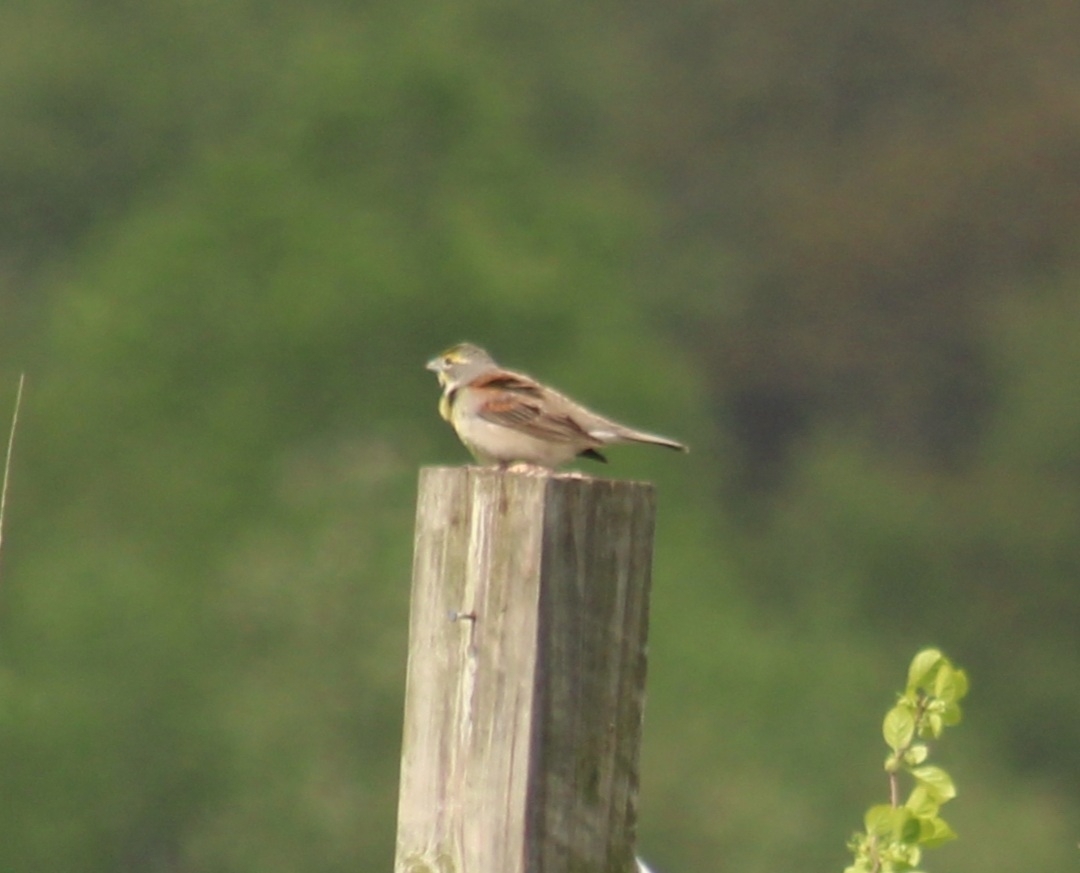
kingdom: Animalia
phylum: Chordata
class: Aves
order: Passeriformes
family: Cardinalidae
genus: Spiza
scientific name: Spiza americana
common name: Dickcissel
